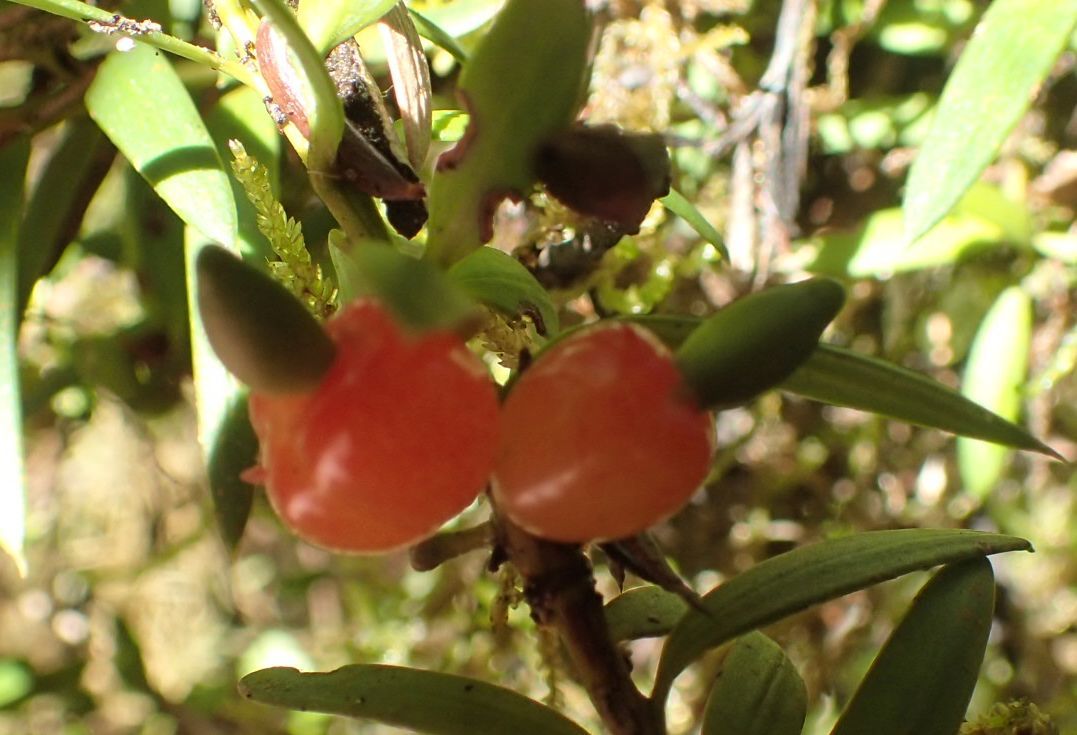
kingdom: Plantae
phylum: Tracheophyta
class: Pinopsida
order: Pinales
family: Podocarpaceae
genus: Podocarpus
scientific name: Podocarpus laetus
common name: Hall's totara
